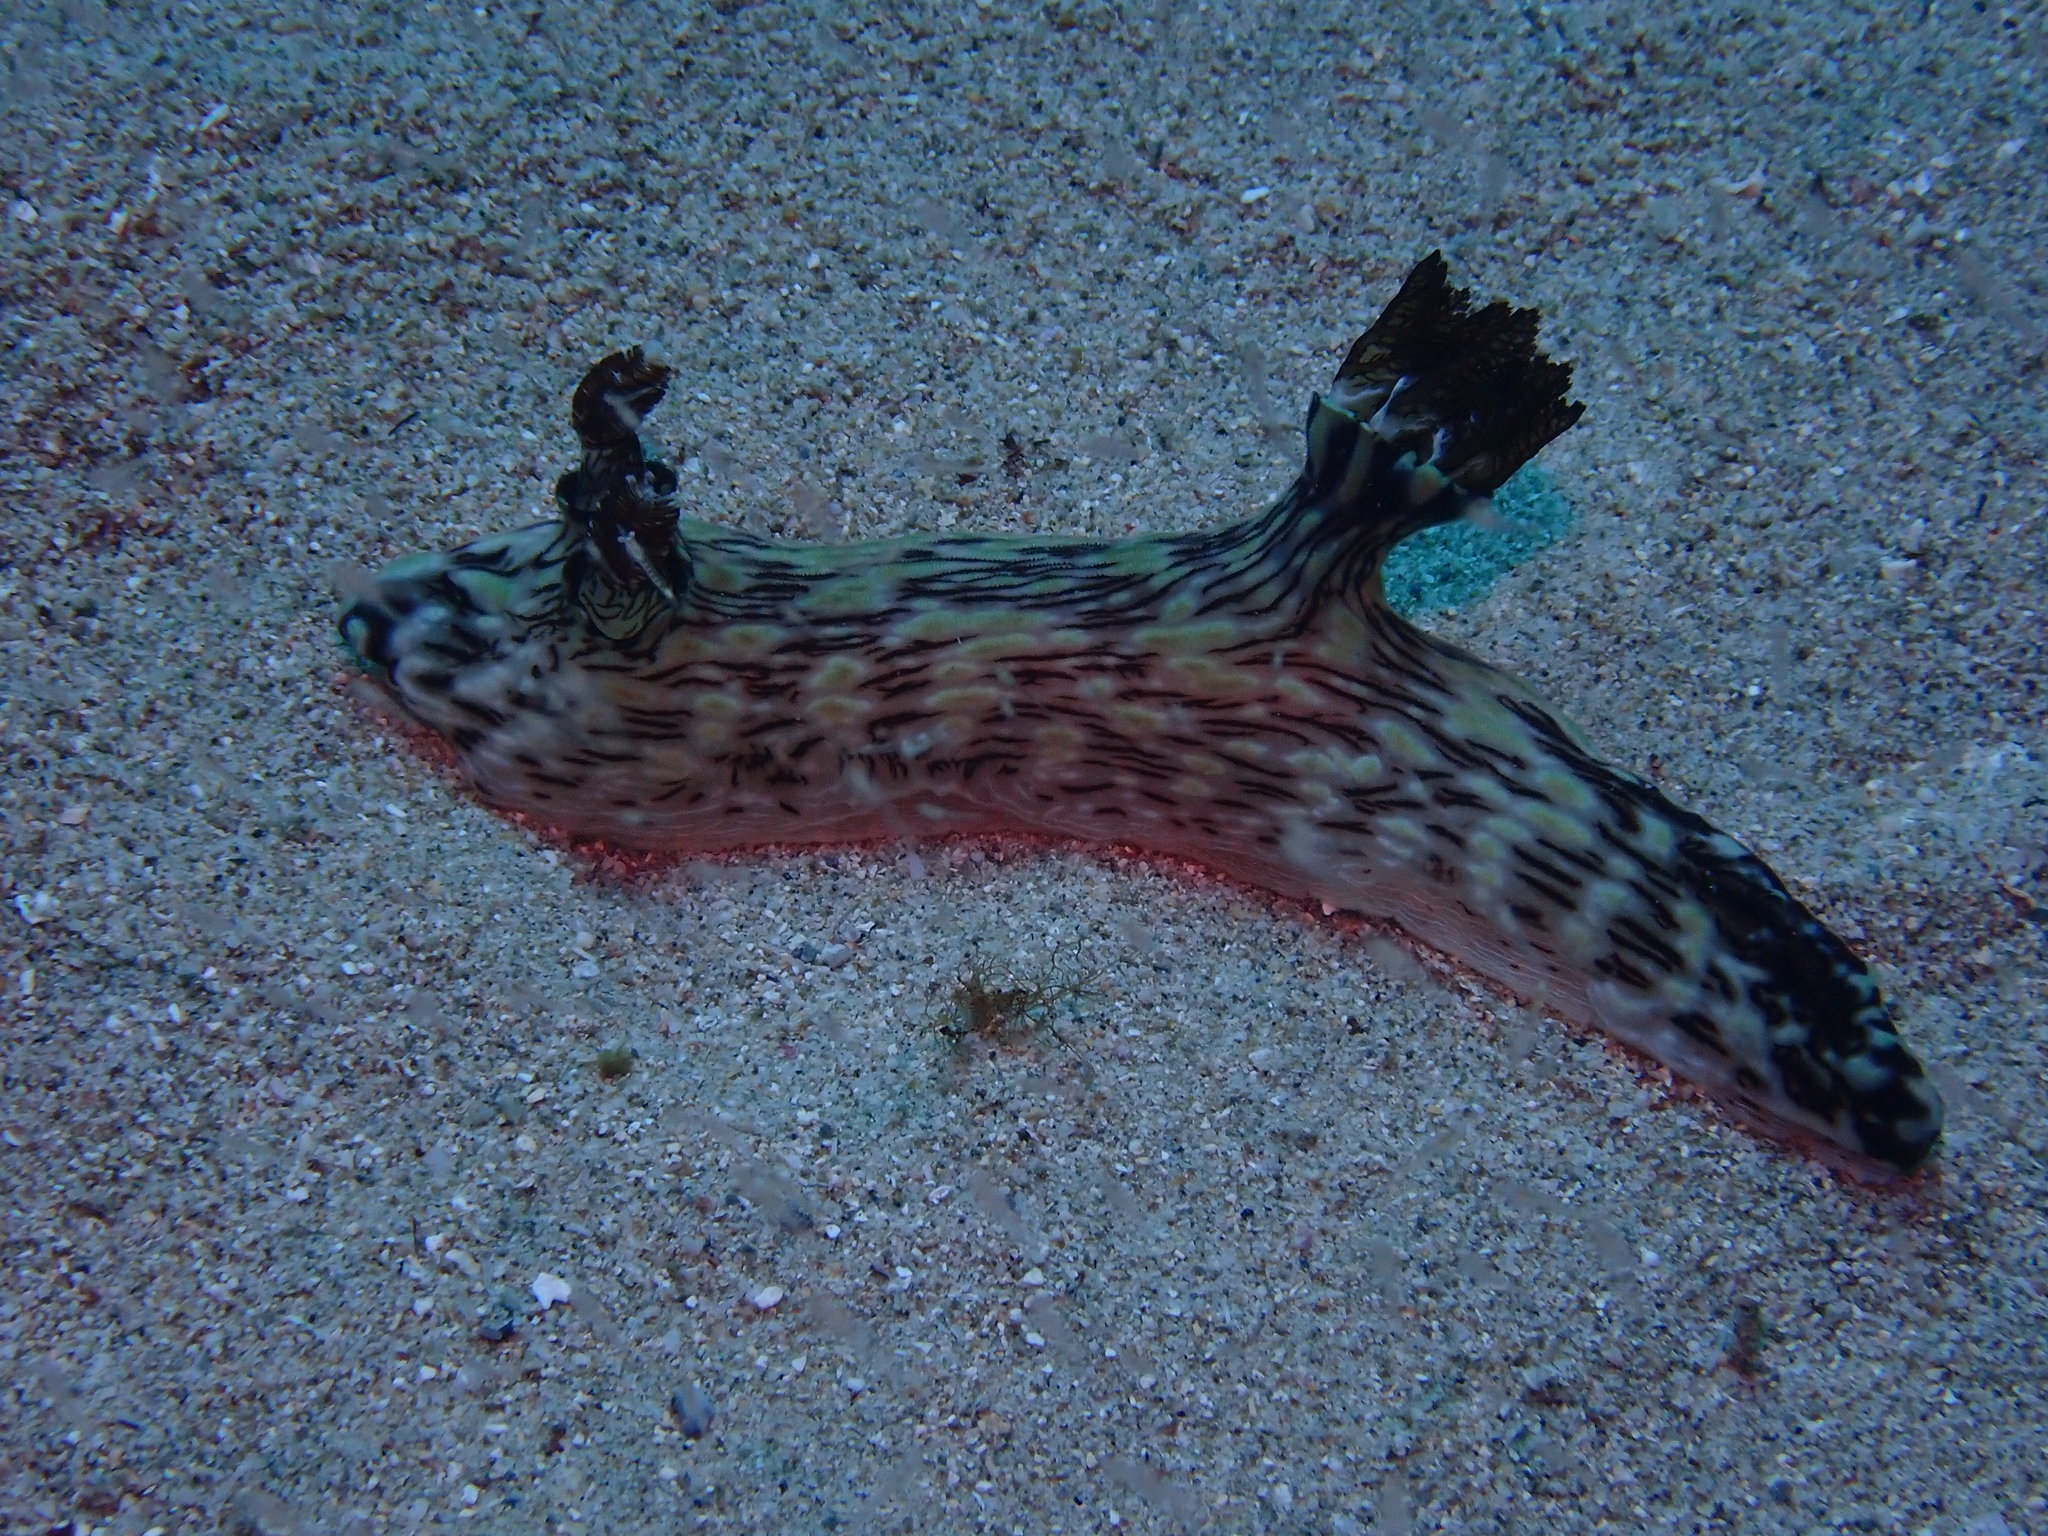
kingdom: Animalia
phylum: Mollusca
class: Gastropoda
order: Nudibranchia
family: Discodorididae
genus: Jorunna
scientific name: Jorunna rubescens
